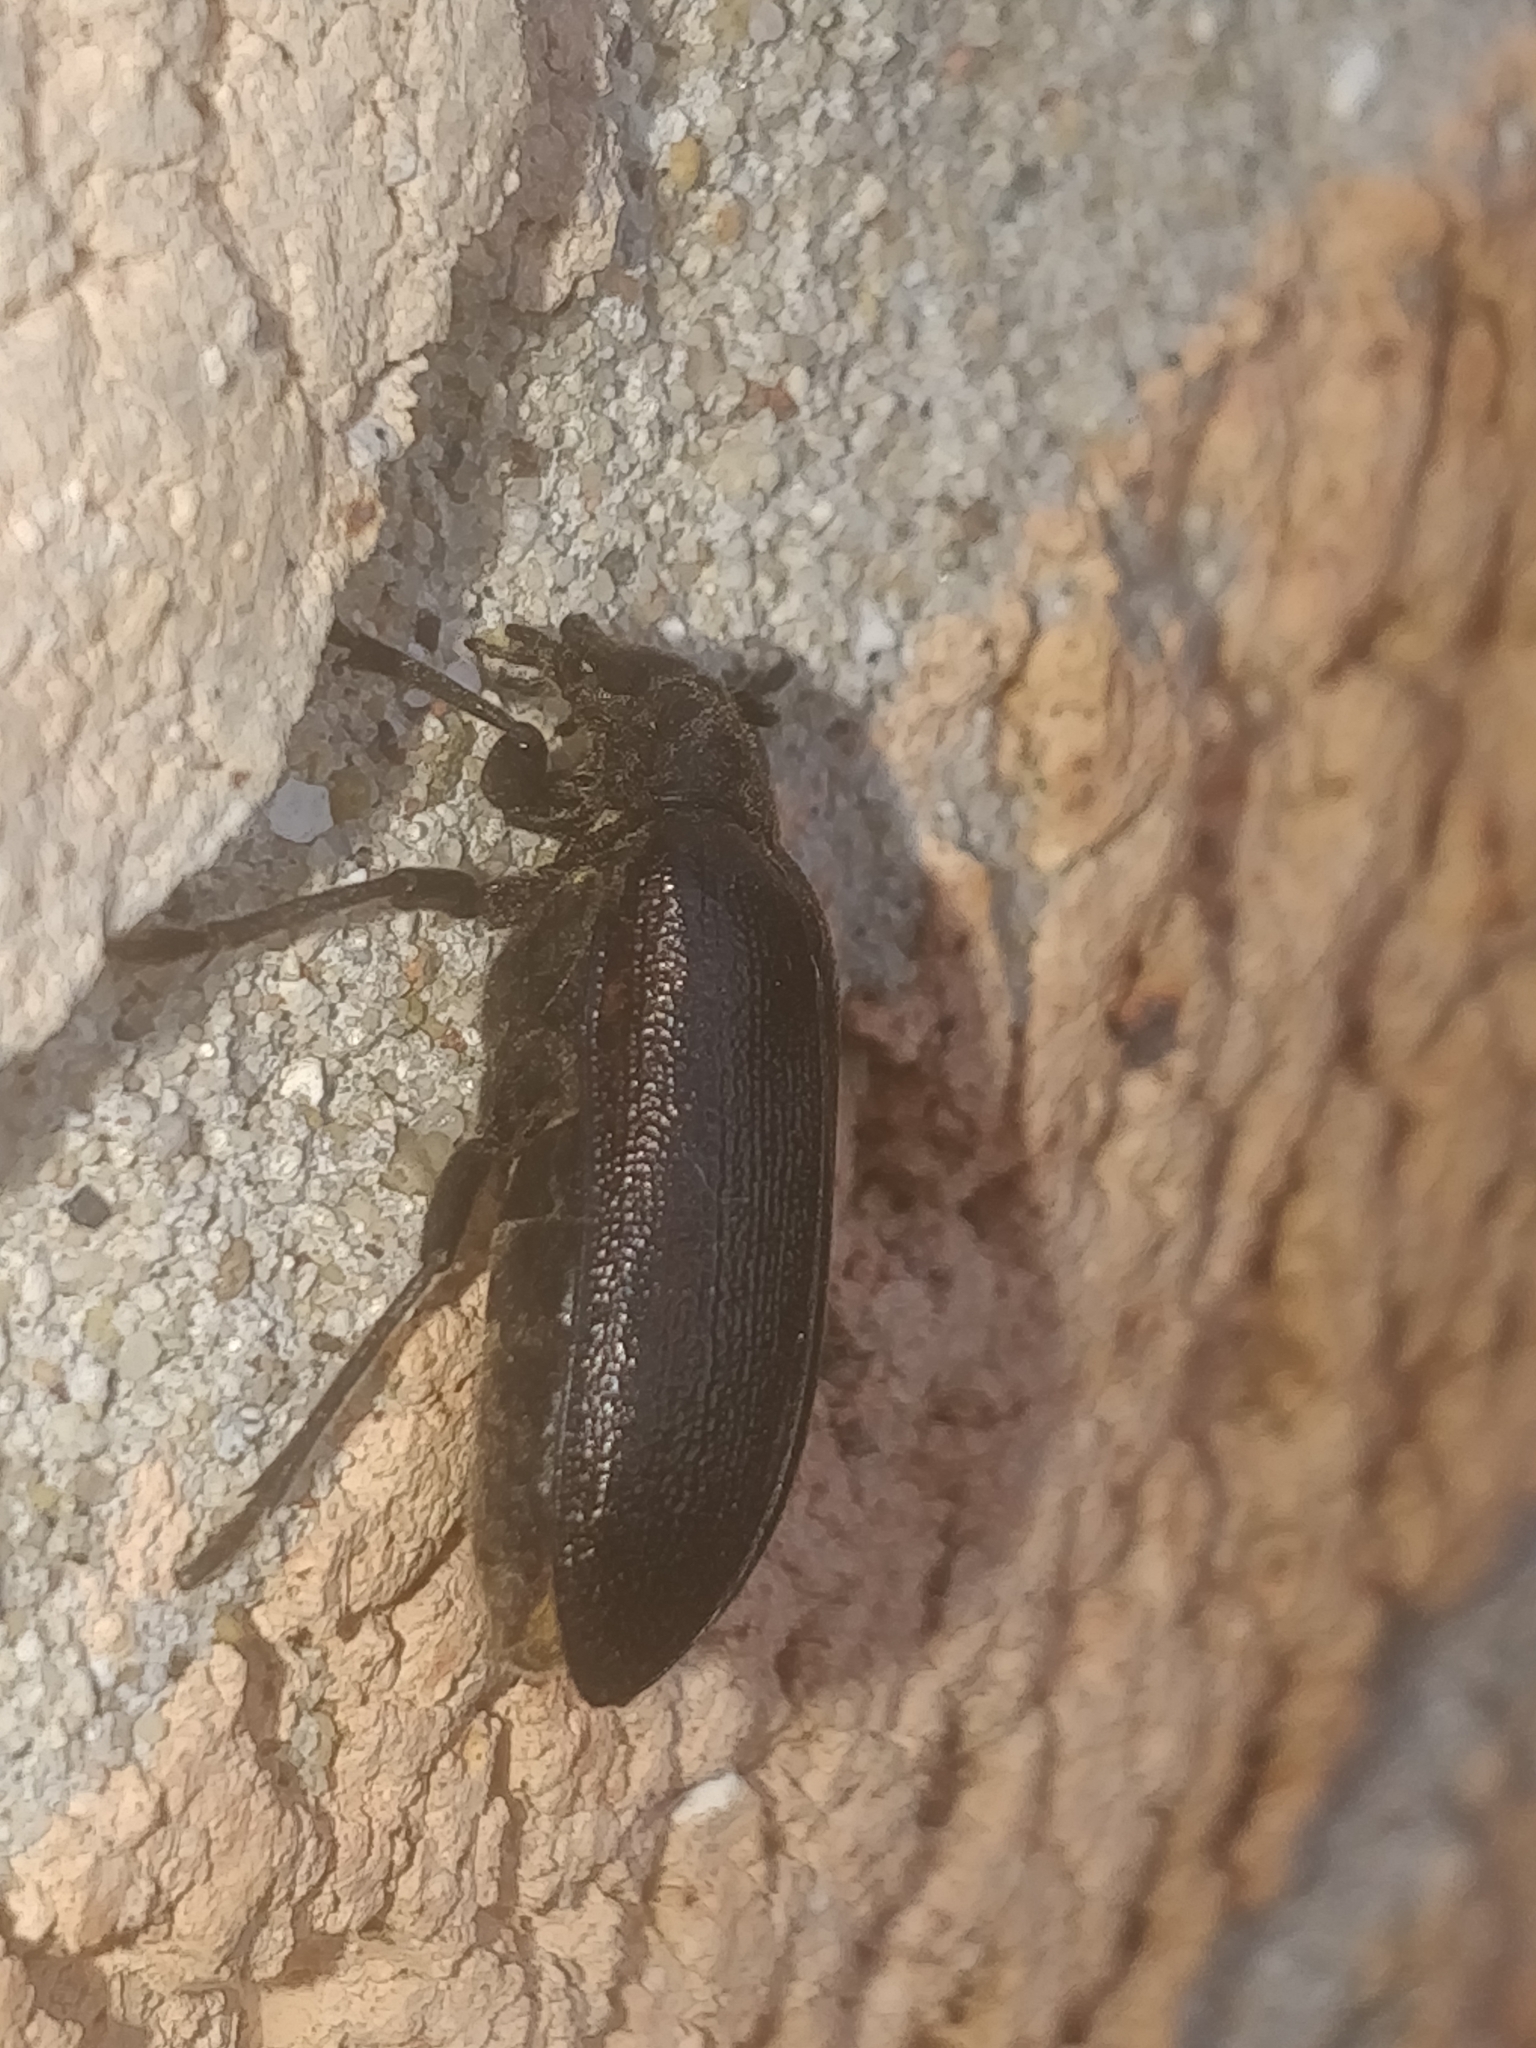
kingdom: Animalia
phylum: Arthropoda
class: Insecta
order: Coleoptera
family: Rhipiceridae
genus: Sandalus
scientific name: Sandalus niger
